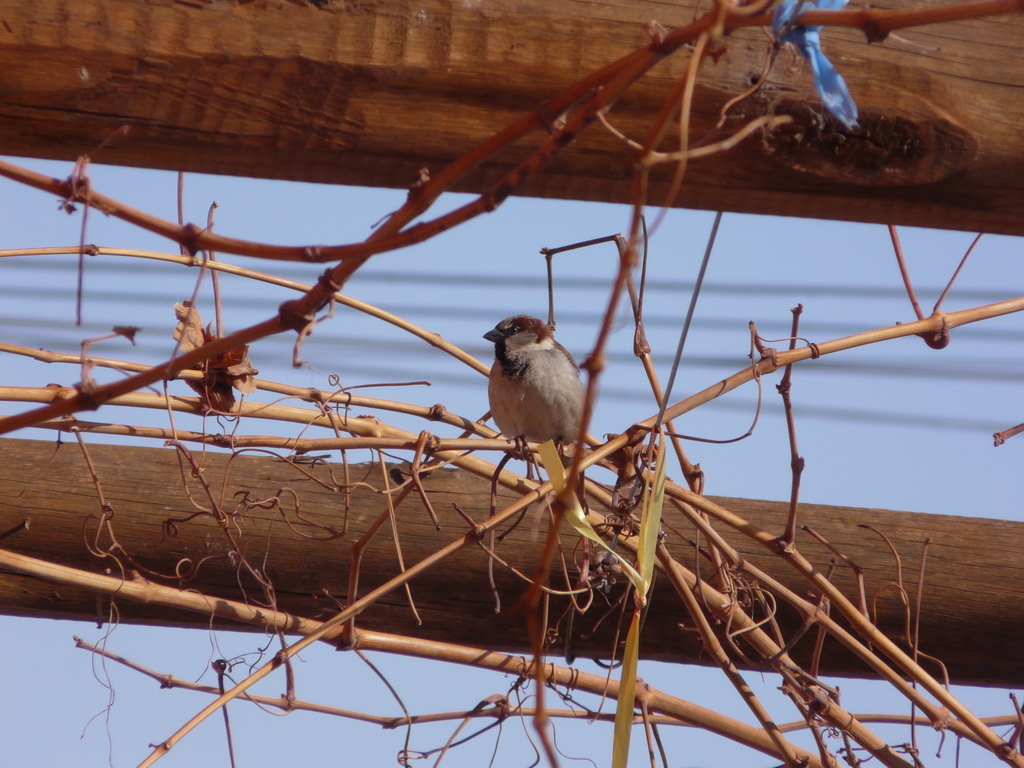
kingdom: Animalia
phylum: Chordata
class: Aves
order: Passeriformes
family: Passeridae
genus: Passer
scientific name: Passer domesticus
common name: House sparrow
